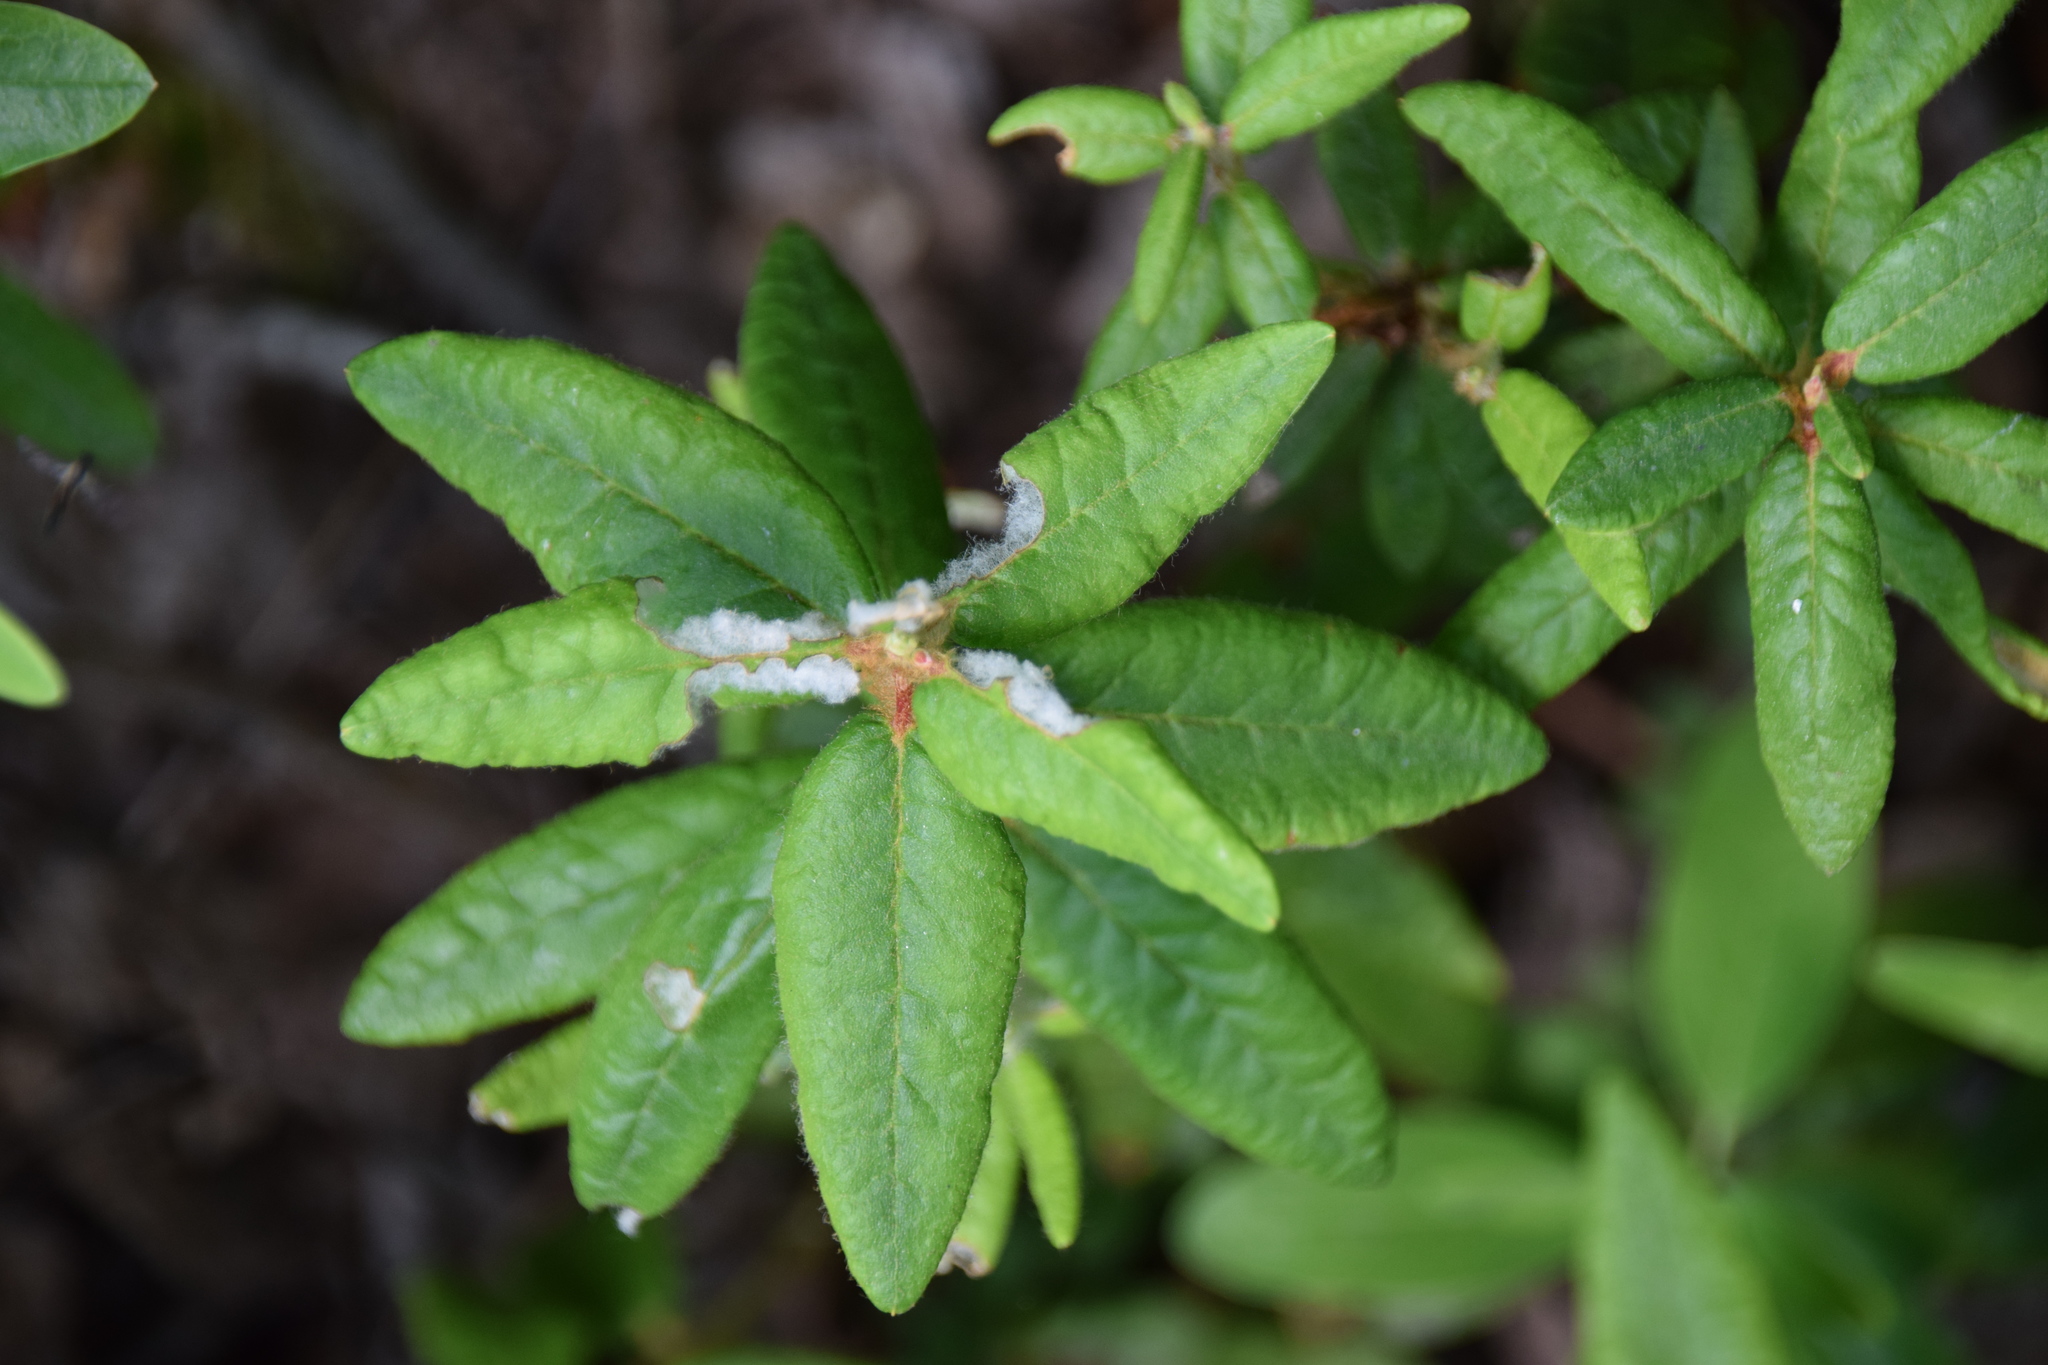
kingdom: Plantae
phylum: Tracheophyta
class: Magnoliopsida
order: Ericales
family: Ericaceae
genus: Rhododendron
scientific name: Rhododendron groenlandicum
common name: Bog labrador tea
